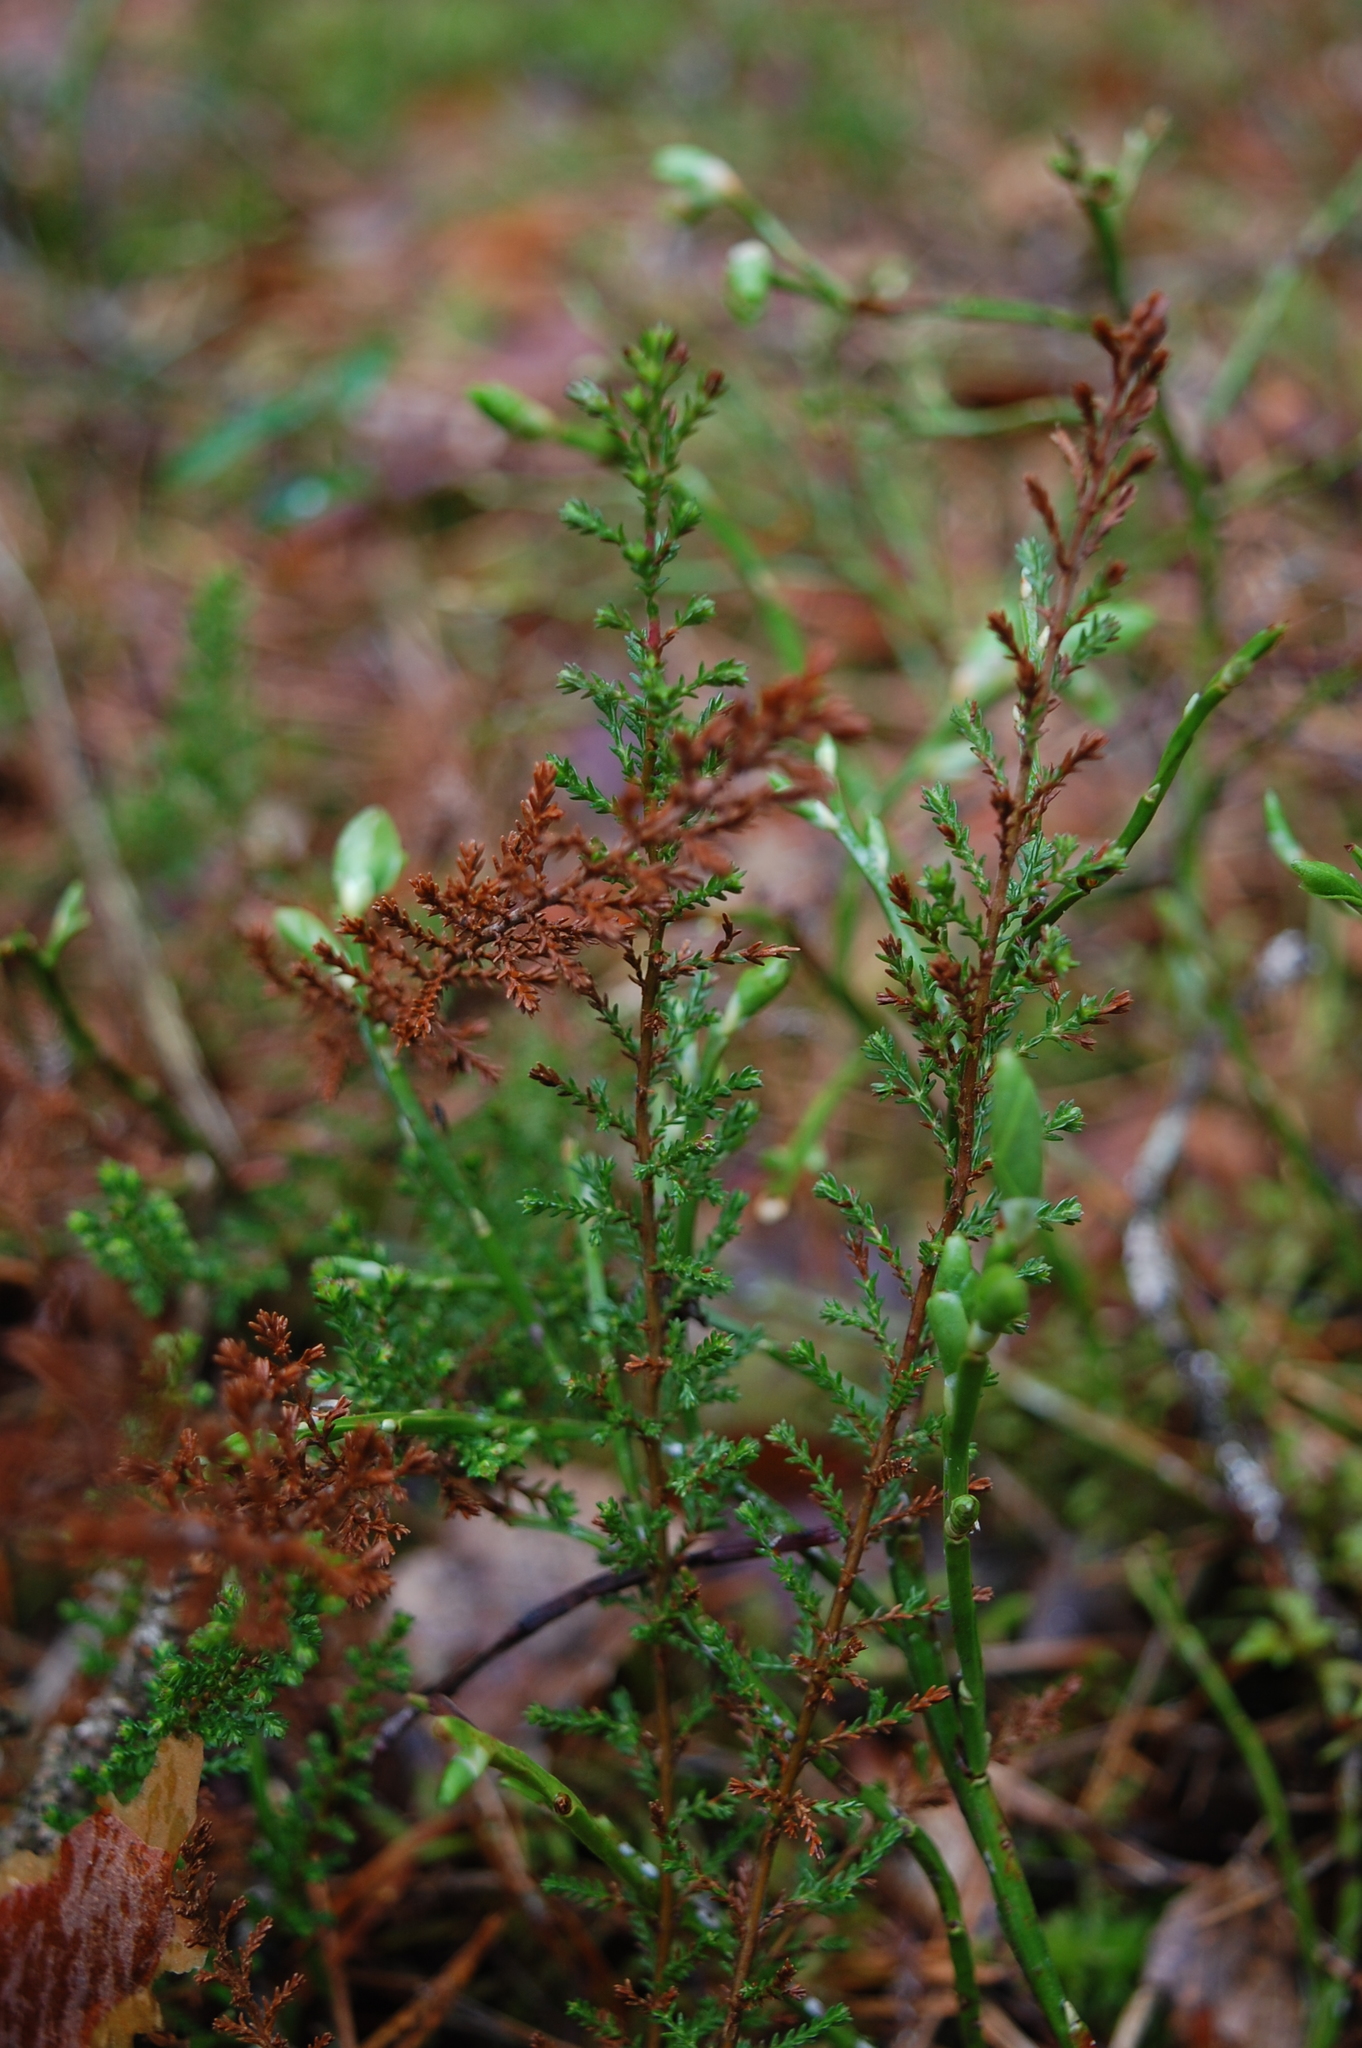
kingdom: Plantae
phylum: Tracheophyta
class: Magnoliopsida
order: Ericales
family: Ericaceae
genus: Calluna
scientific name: Calluna vulgaris
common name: Heather
